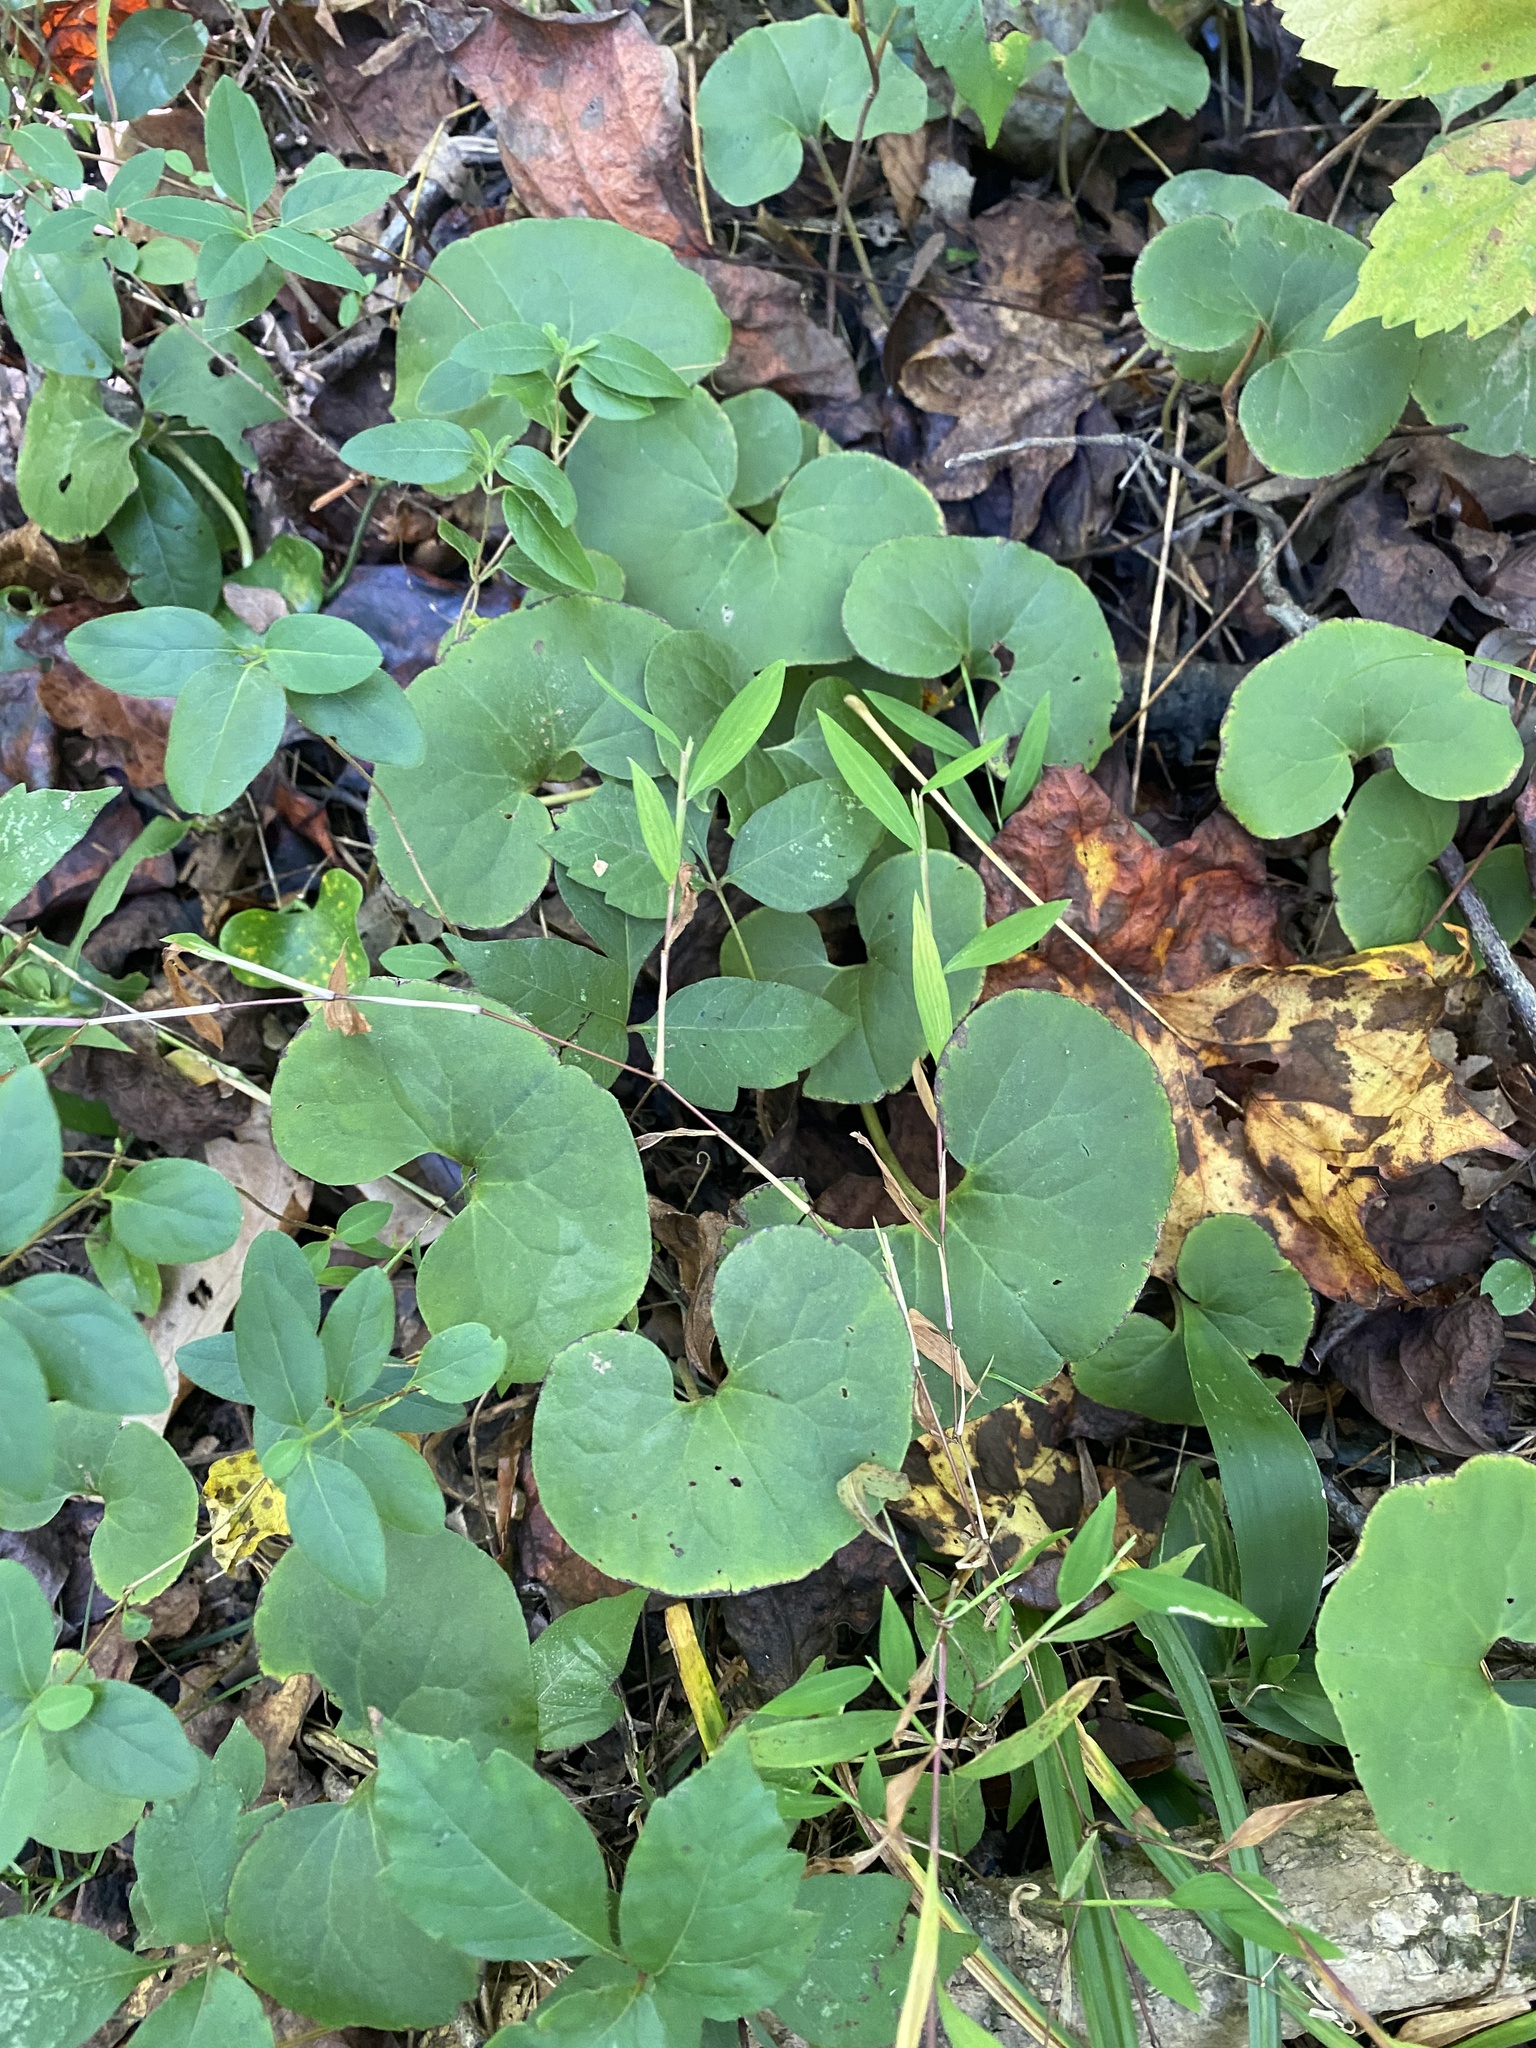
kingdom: Plantae
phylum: Tracheophyta
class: Magnoliopsida
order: Piperales
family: Aristolochiaceae
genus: Asarum
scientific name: Asarum canadense
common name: Wild ginger
